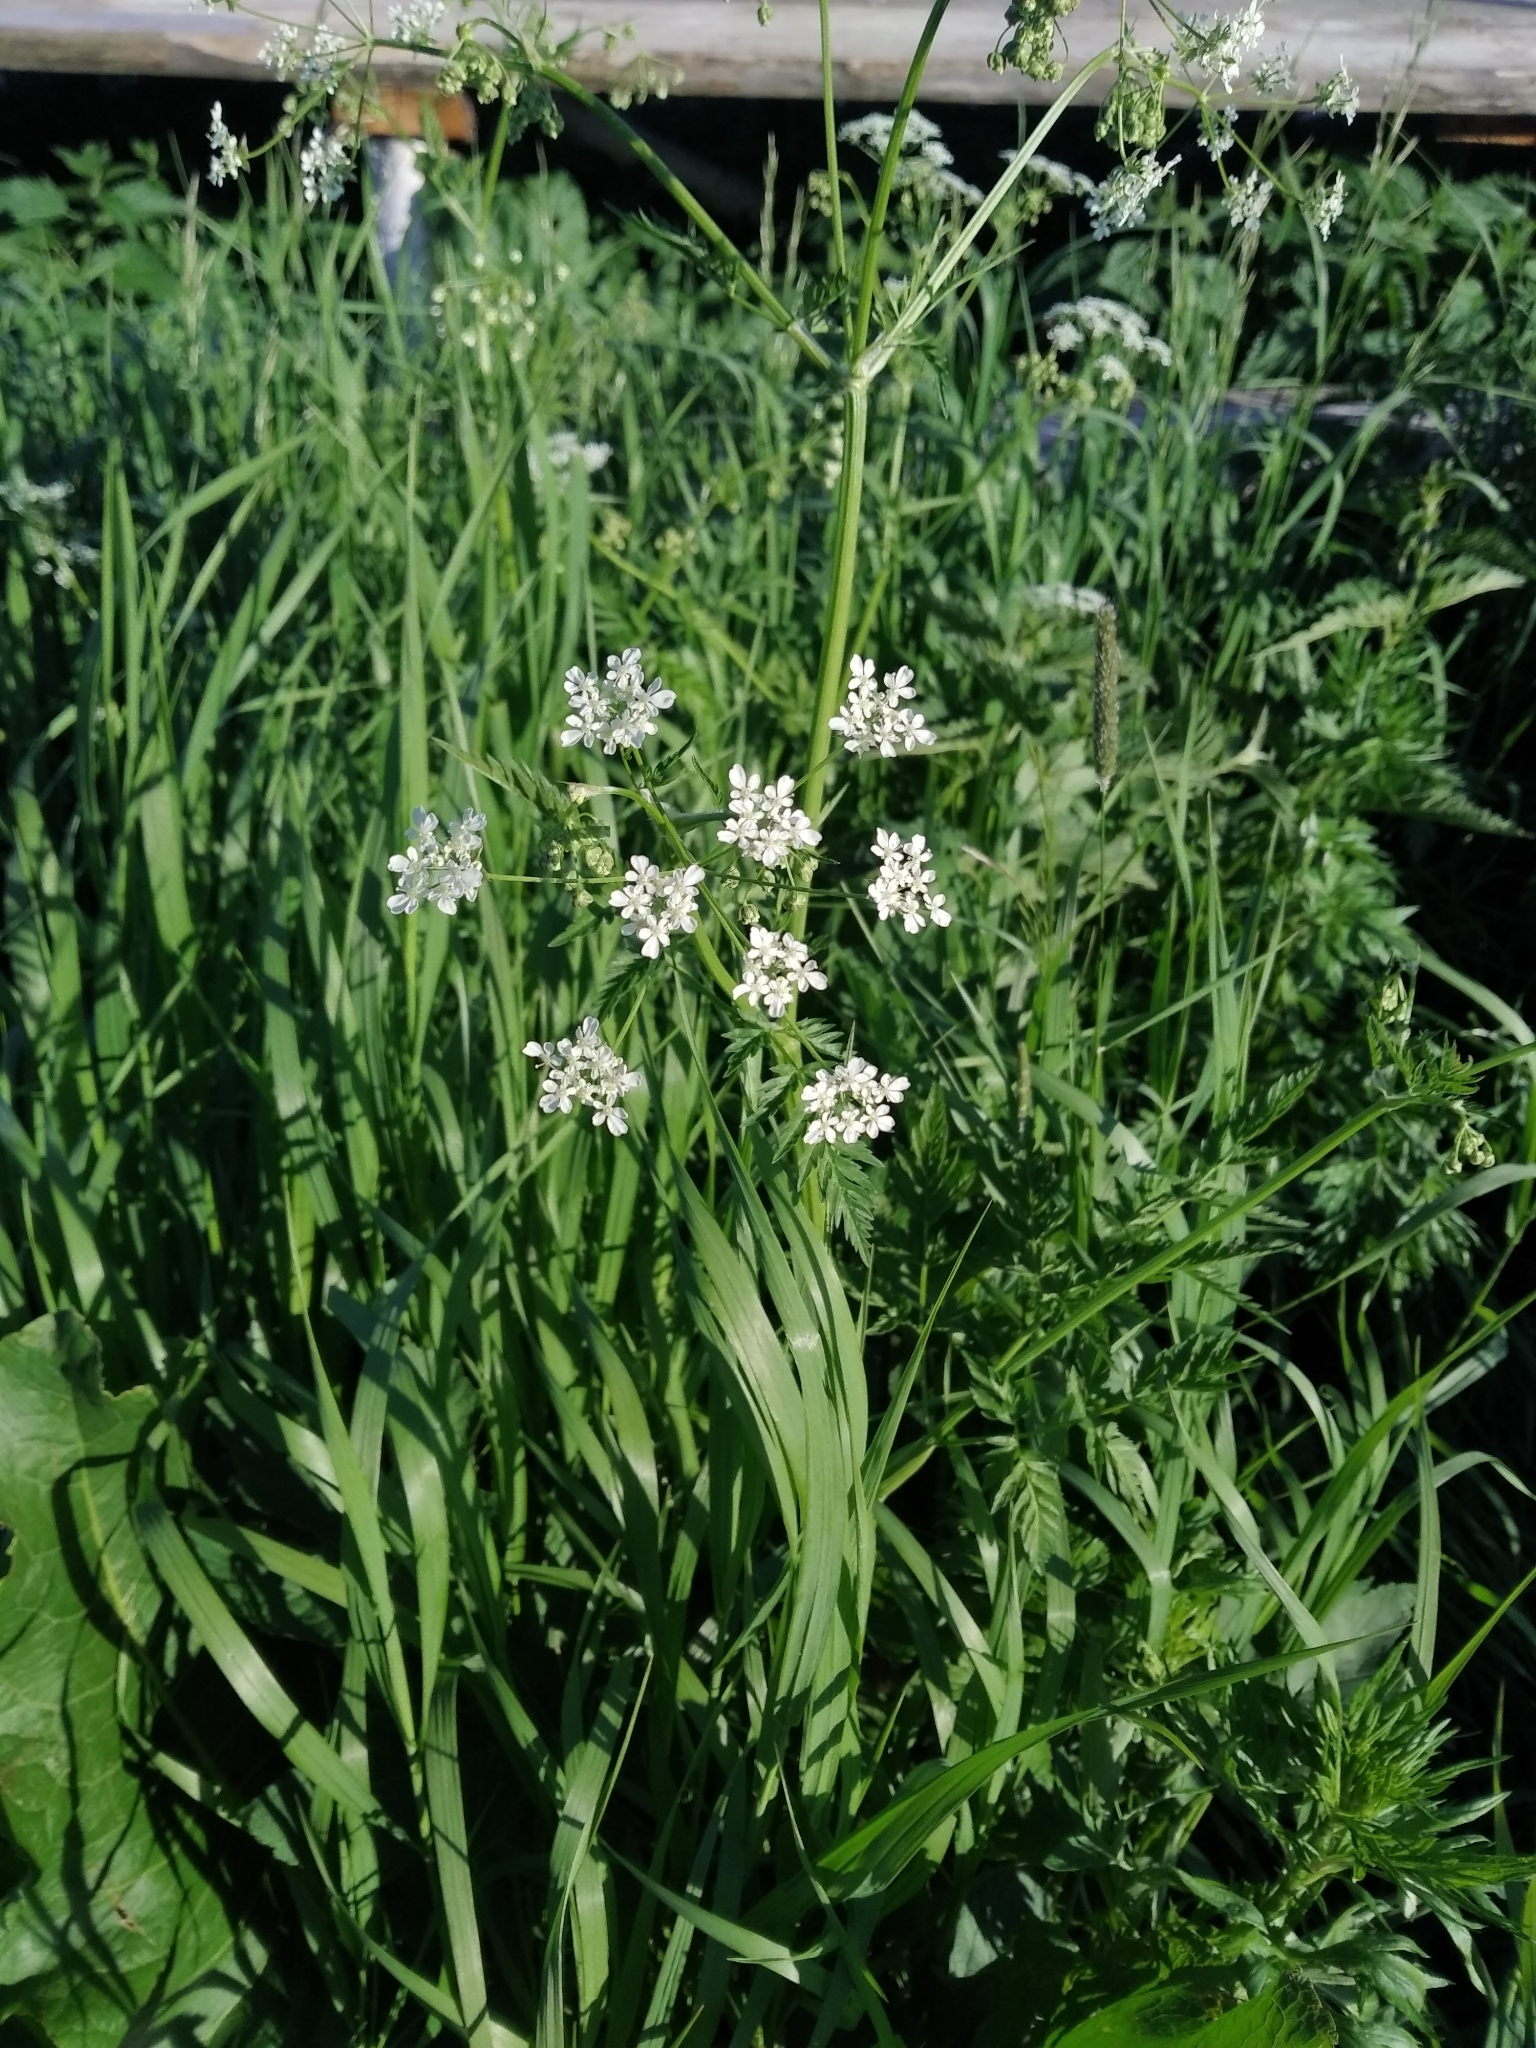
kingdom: Plantae
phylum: Tracheophyta
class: Magnoliopsida
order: Apiales
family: Apiaceae
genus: Anthriscus
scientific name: Anthriscus sylvestris
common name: Cow parsley
